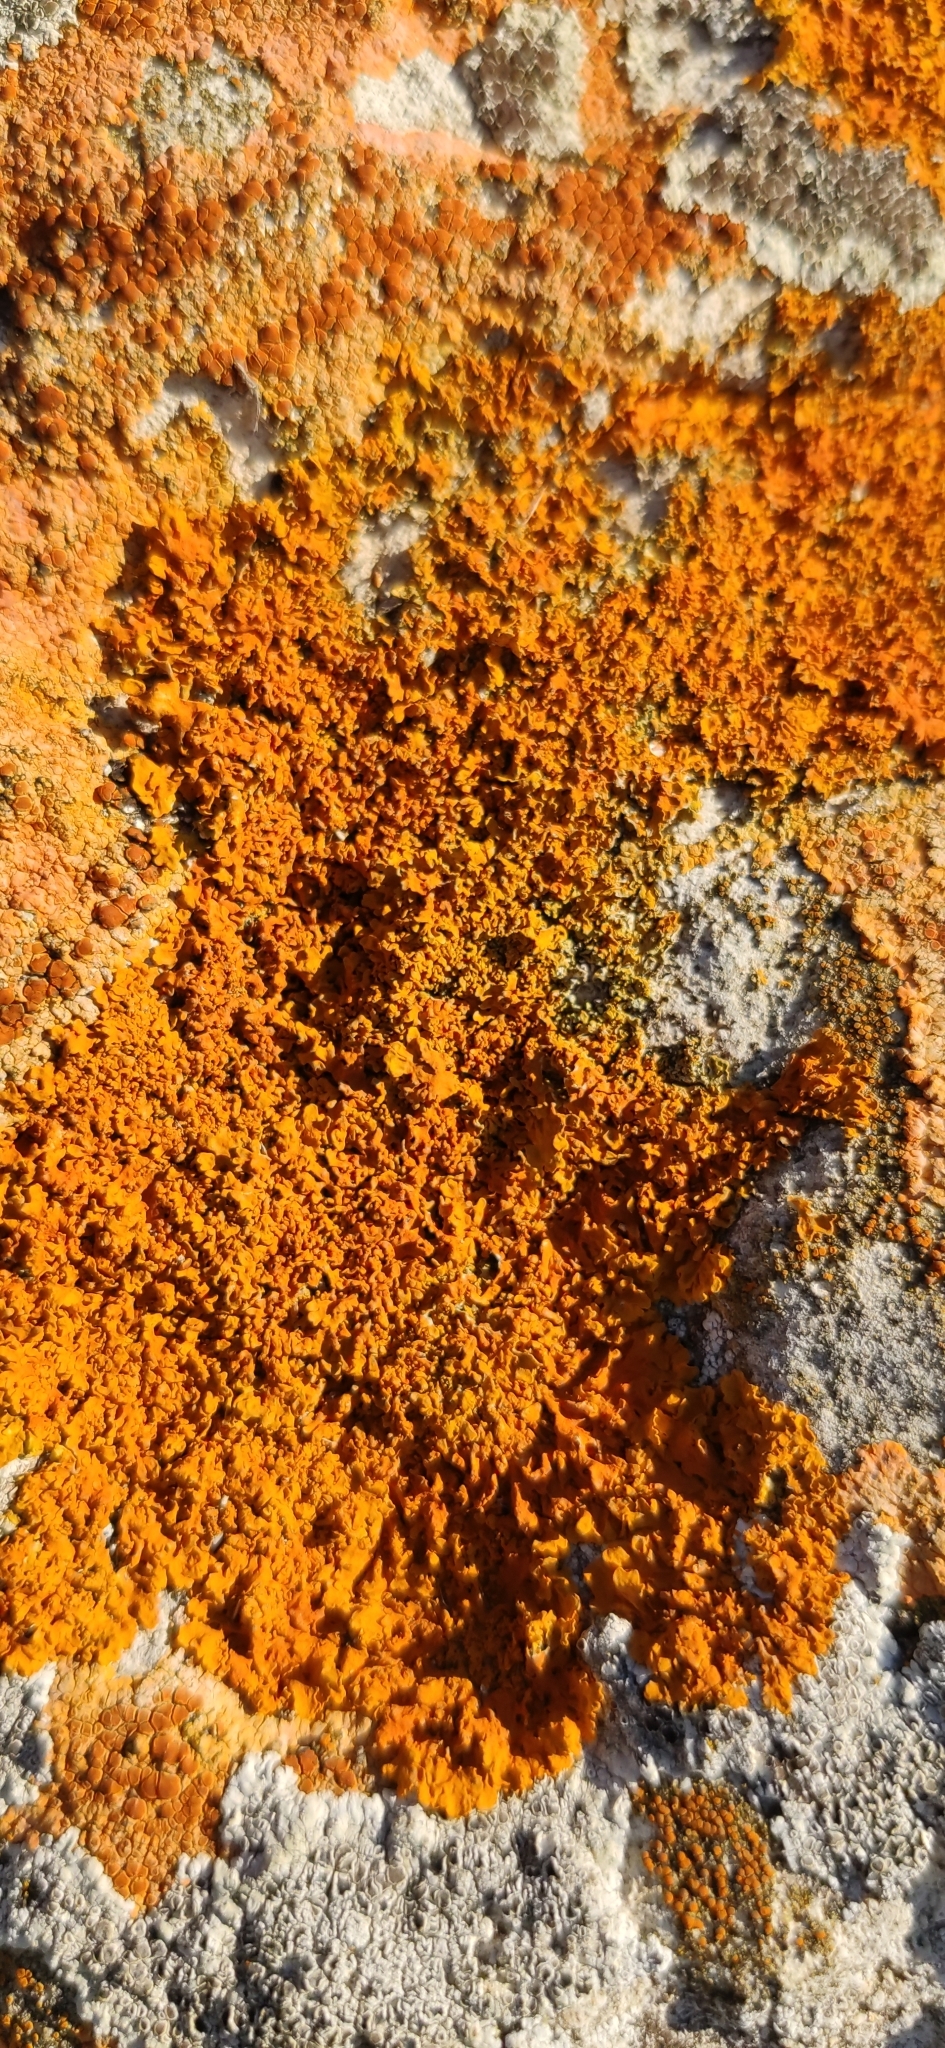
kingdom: Fungi
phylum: Ascomycota
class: Lecanoromycetes
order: Teloschistales
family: Teloschistaceae
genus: Xanthoria
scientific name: Xanthoria calcicola
